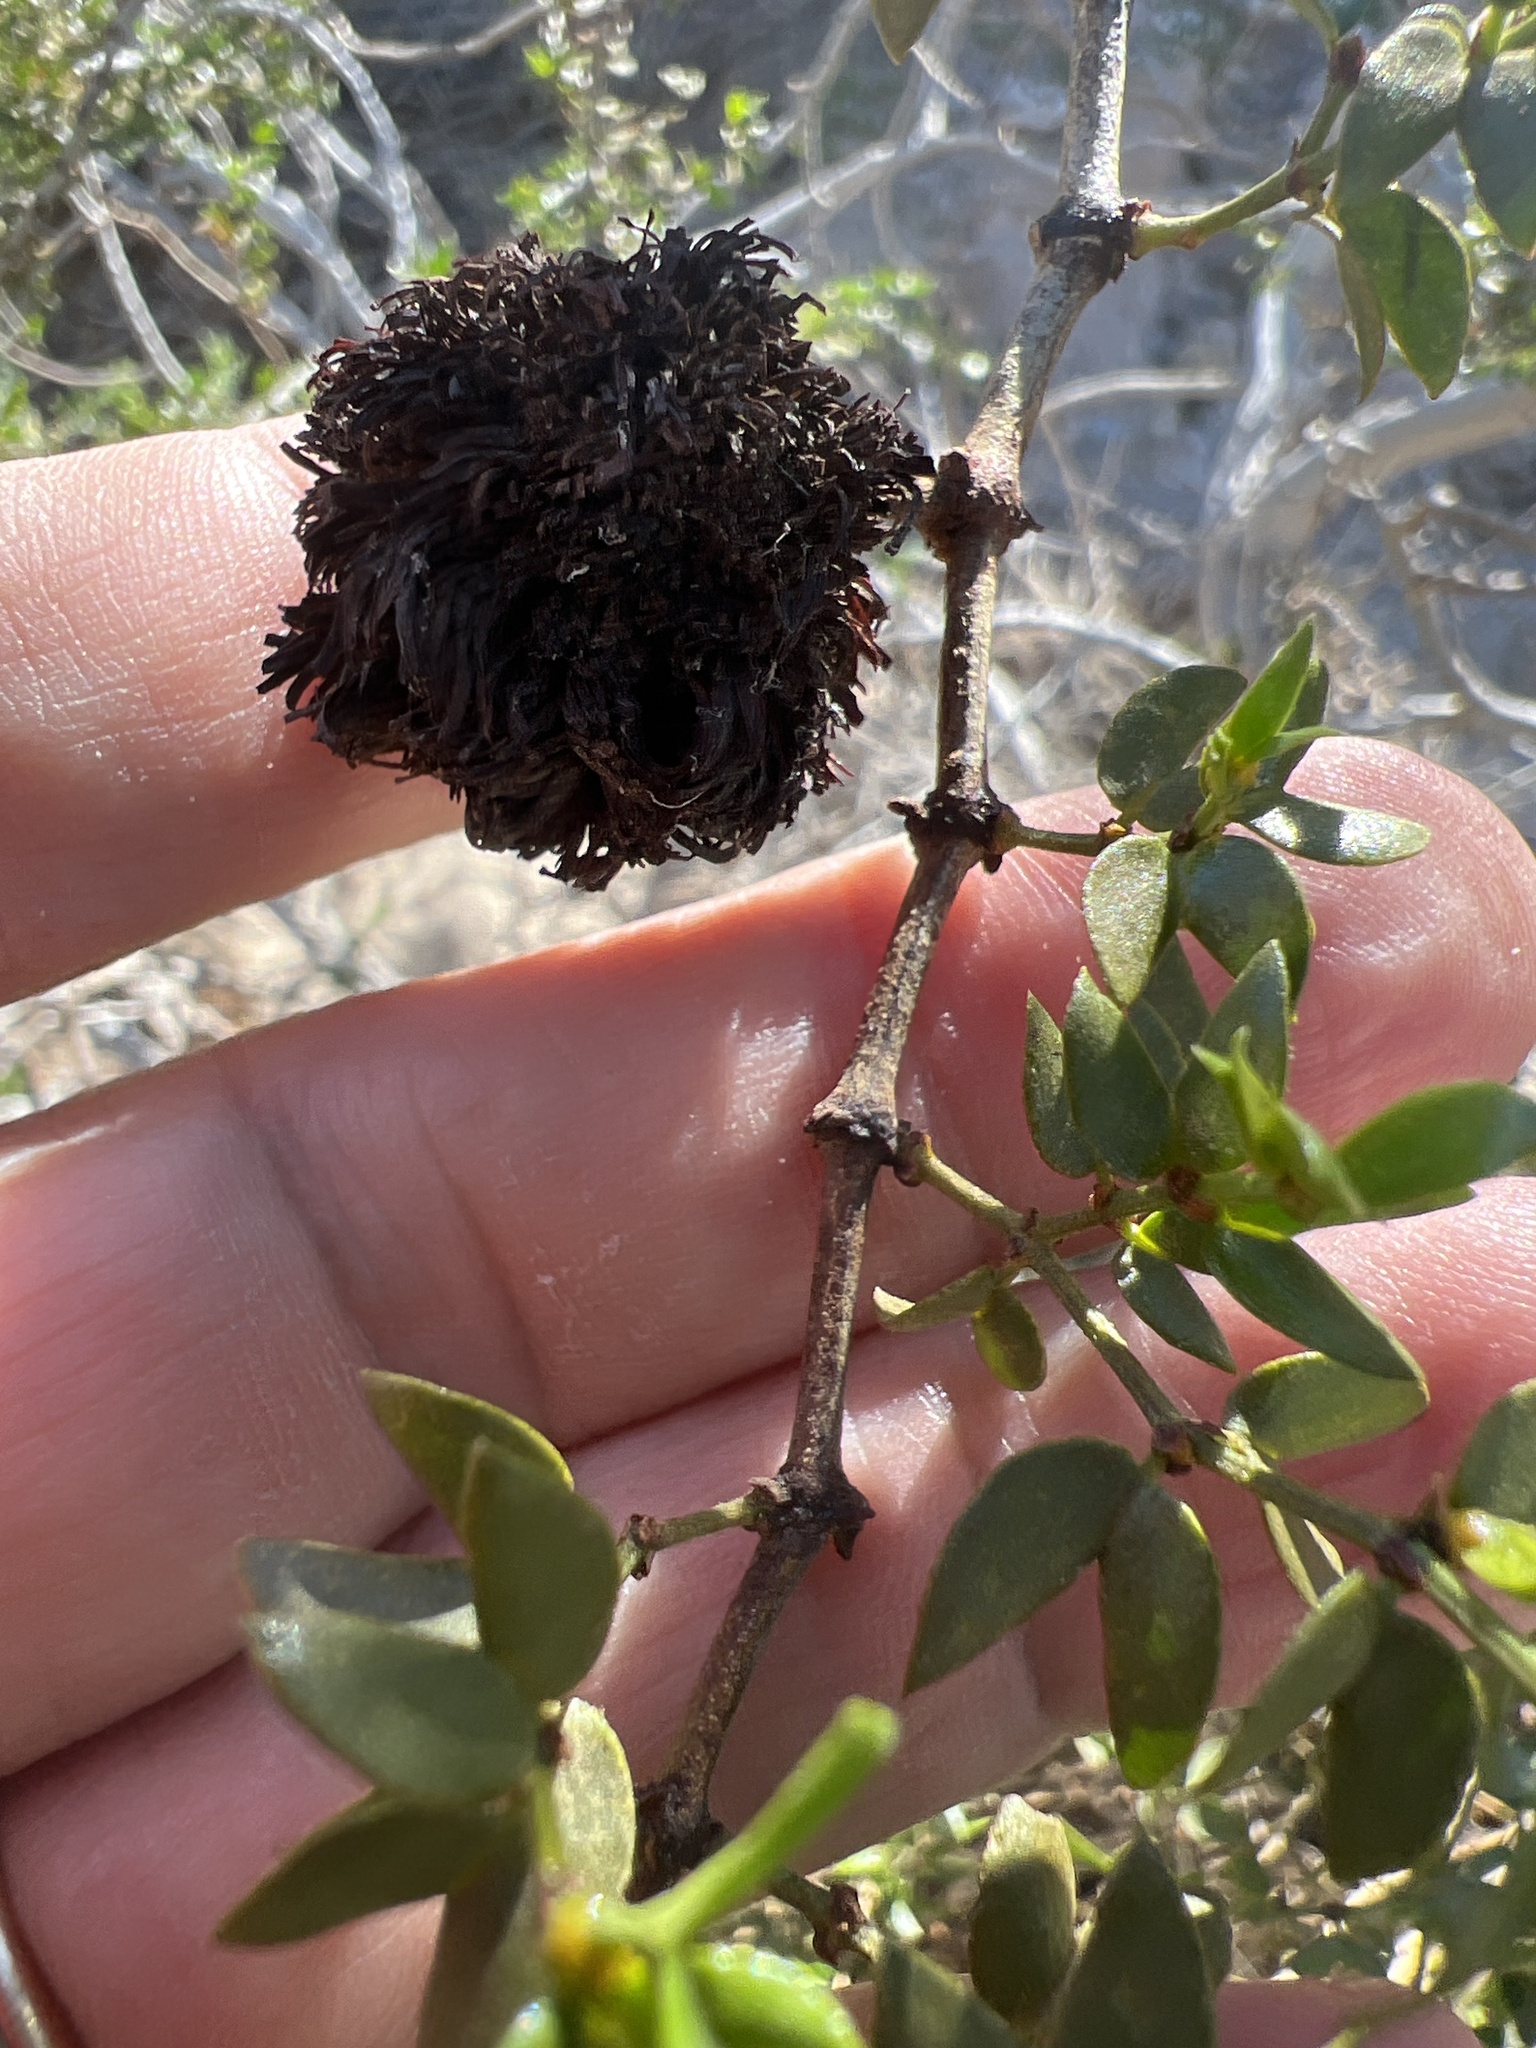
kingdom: Animalia
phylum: Arthropoda
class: Insecta
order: Diptera
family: Cecidomyiidae
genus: Asphondylia
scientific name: Asphondylia auripila
